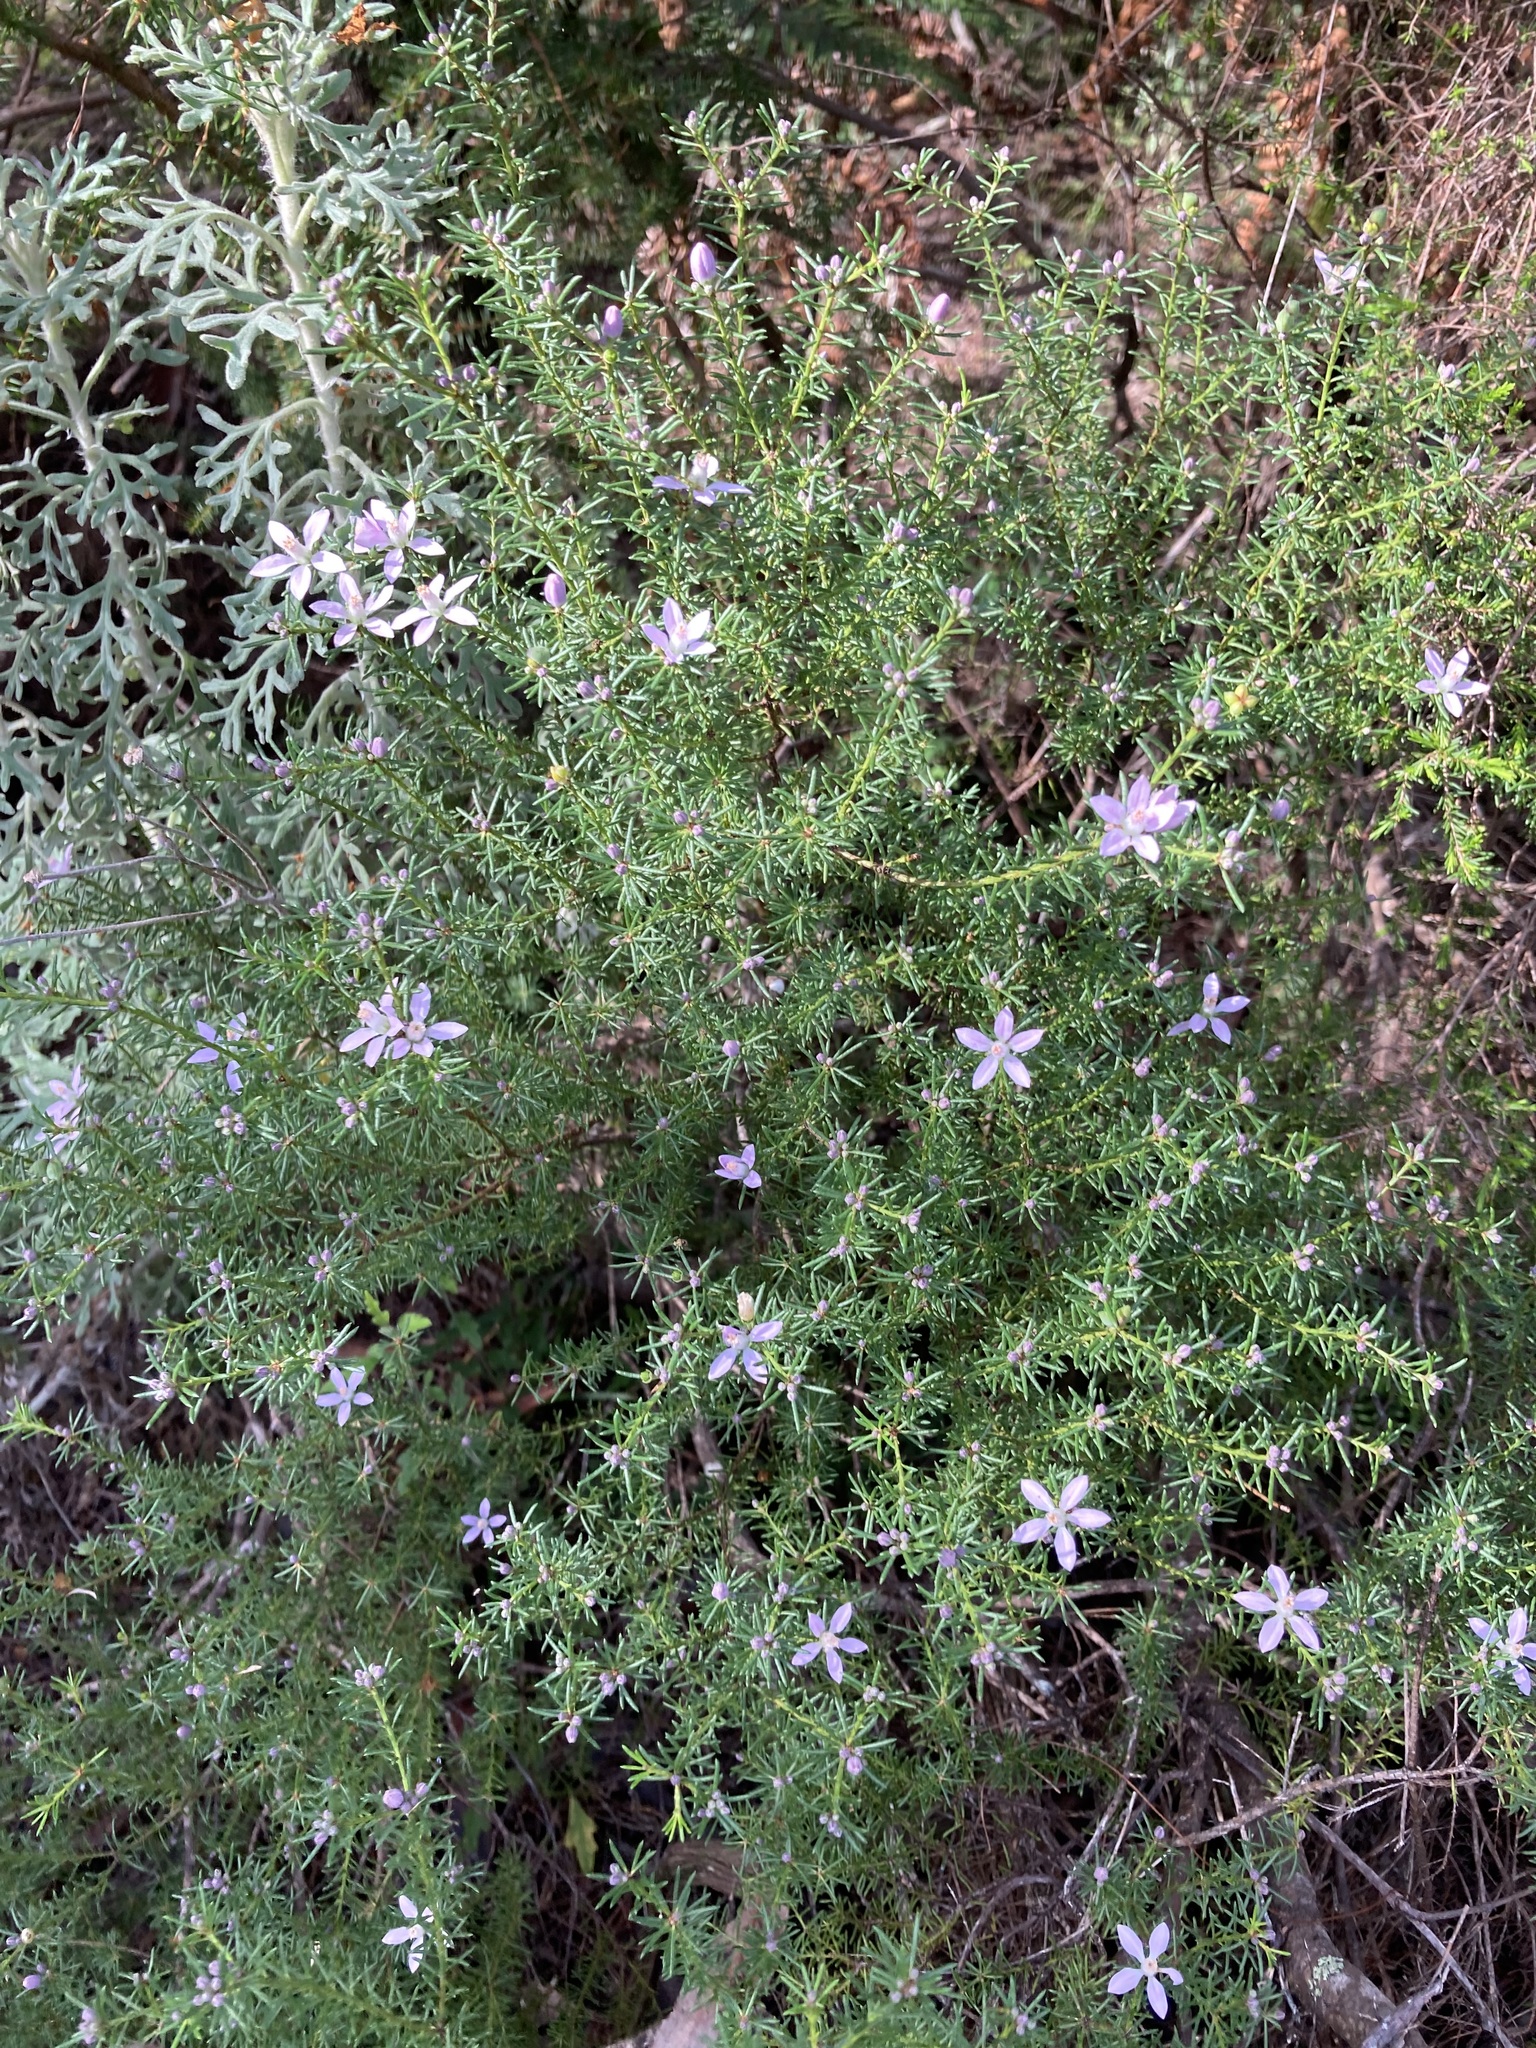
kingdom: Plantae
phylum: Tracheophyta
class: Magnoliopsida
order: Sapindales
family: Rutaceae
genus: Philotheca
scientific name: Philotheca salsolifolia
